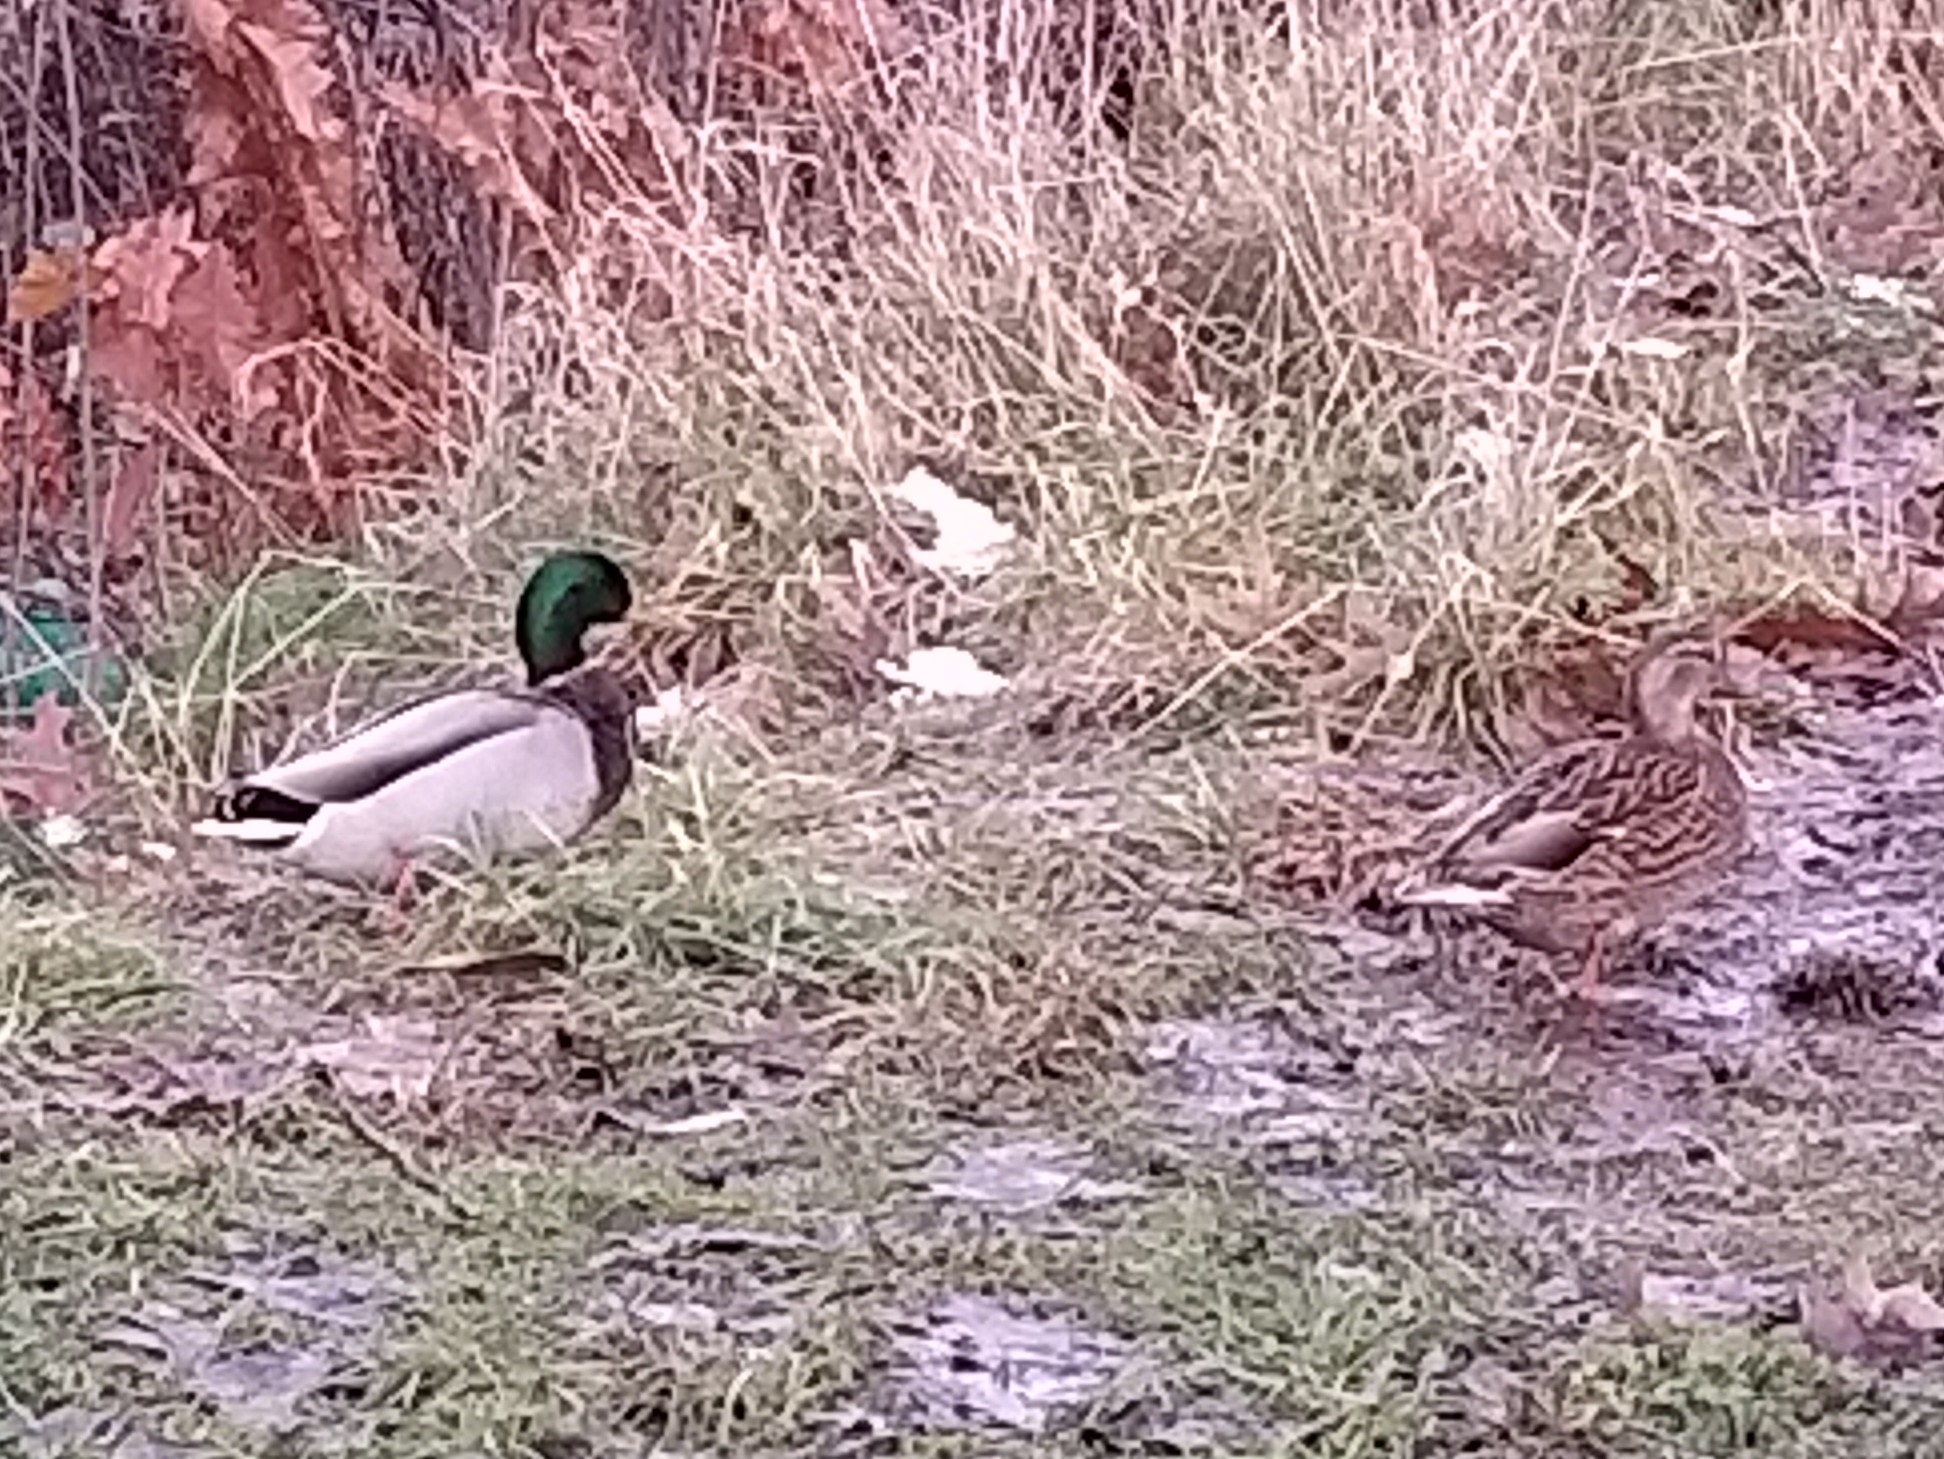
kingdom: Animalia
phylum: Chordata
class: Aves
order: Anseriformes
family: Anatidae
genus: Anas
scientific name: Anas platyrhynchos
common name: Mallard
